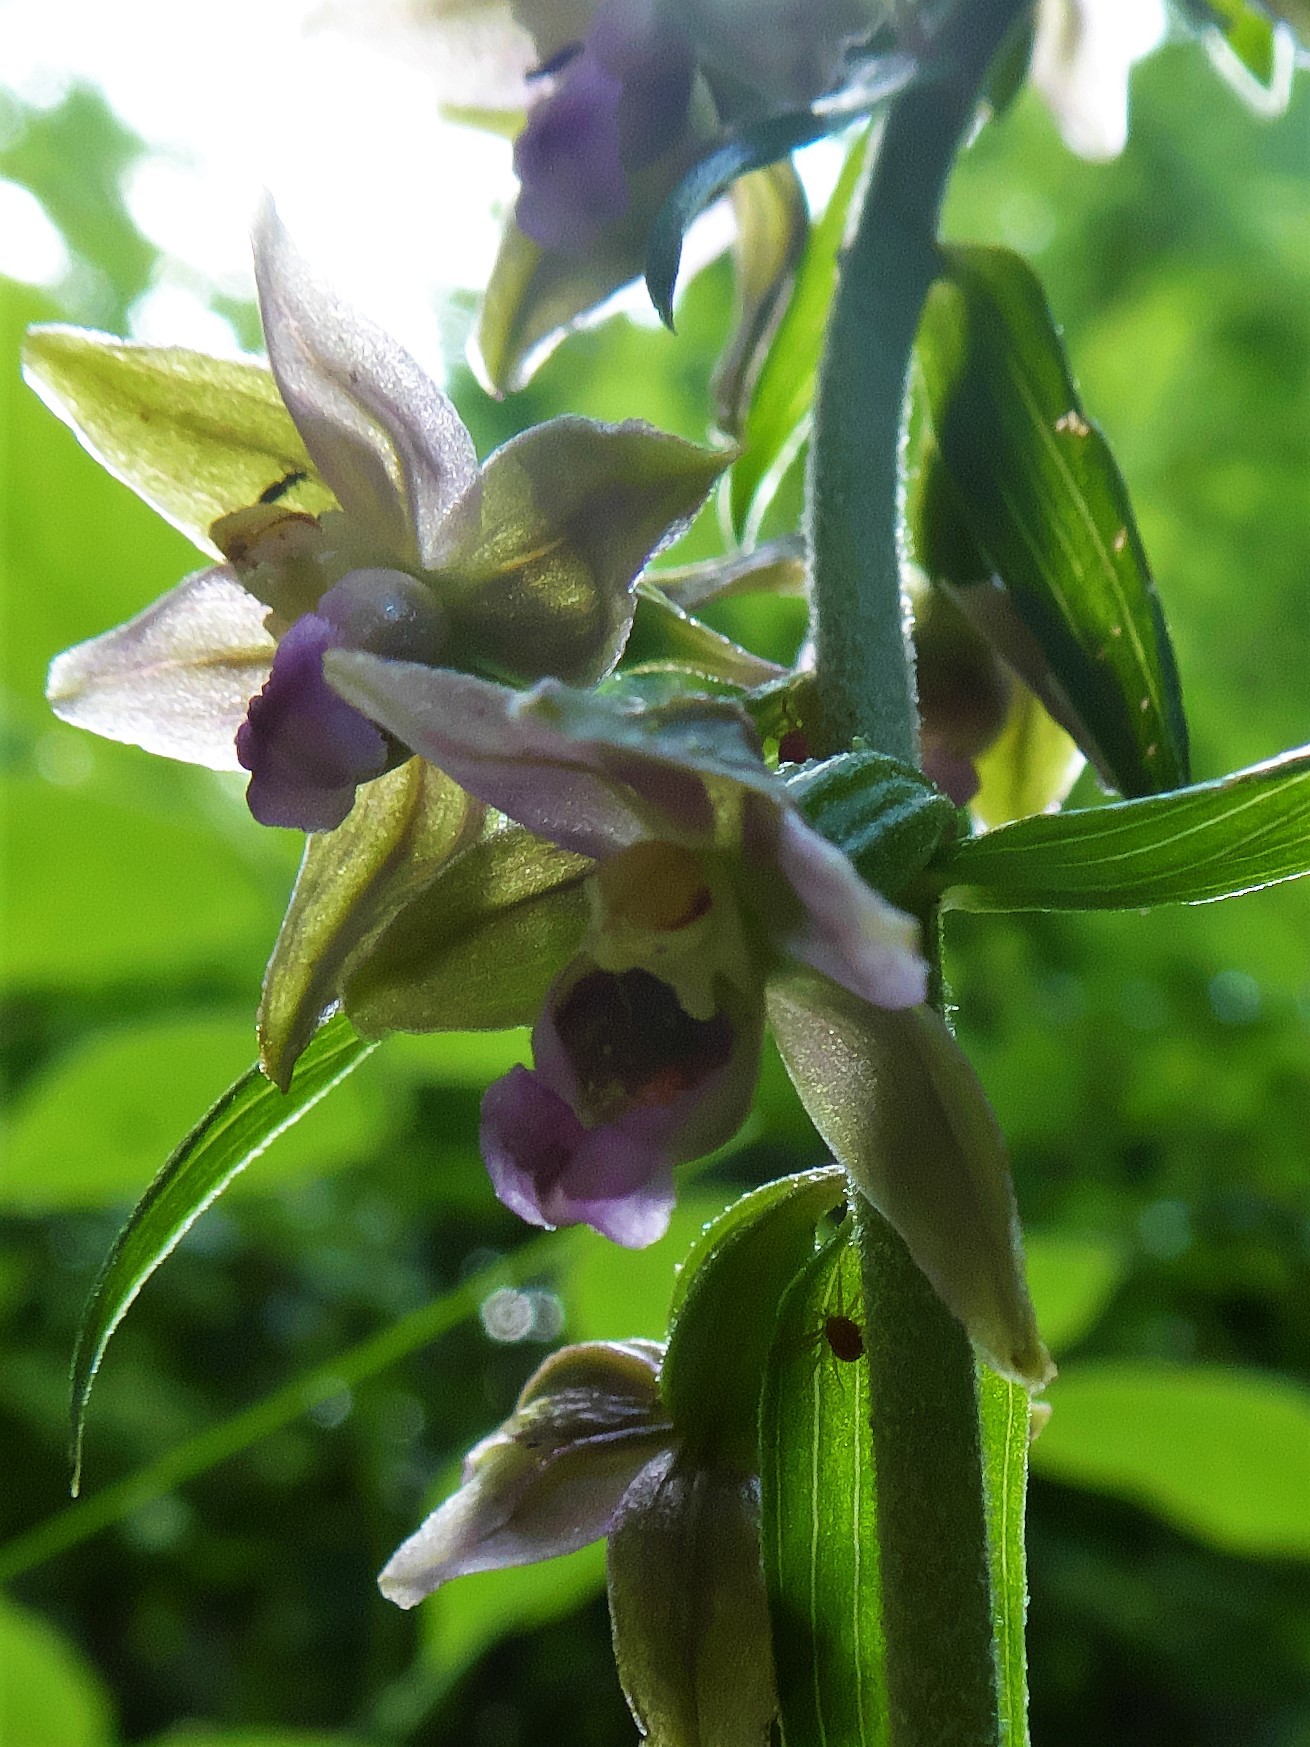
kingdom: Plantae
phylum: Tracheophyta
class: Liliopsida
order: Asparagales
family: Orchidaceae
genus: Epipactis
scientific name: Epipactis helleborine
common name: Broad-leaved helleborine
